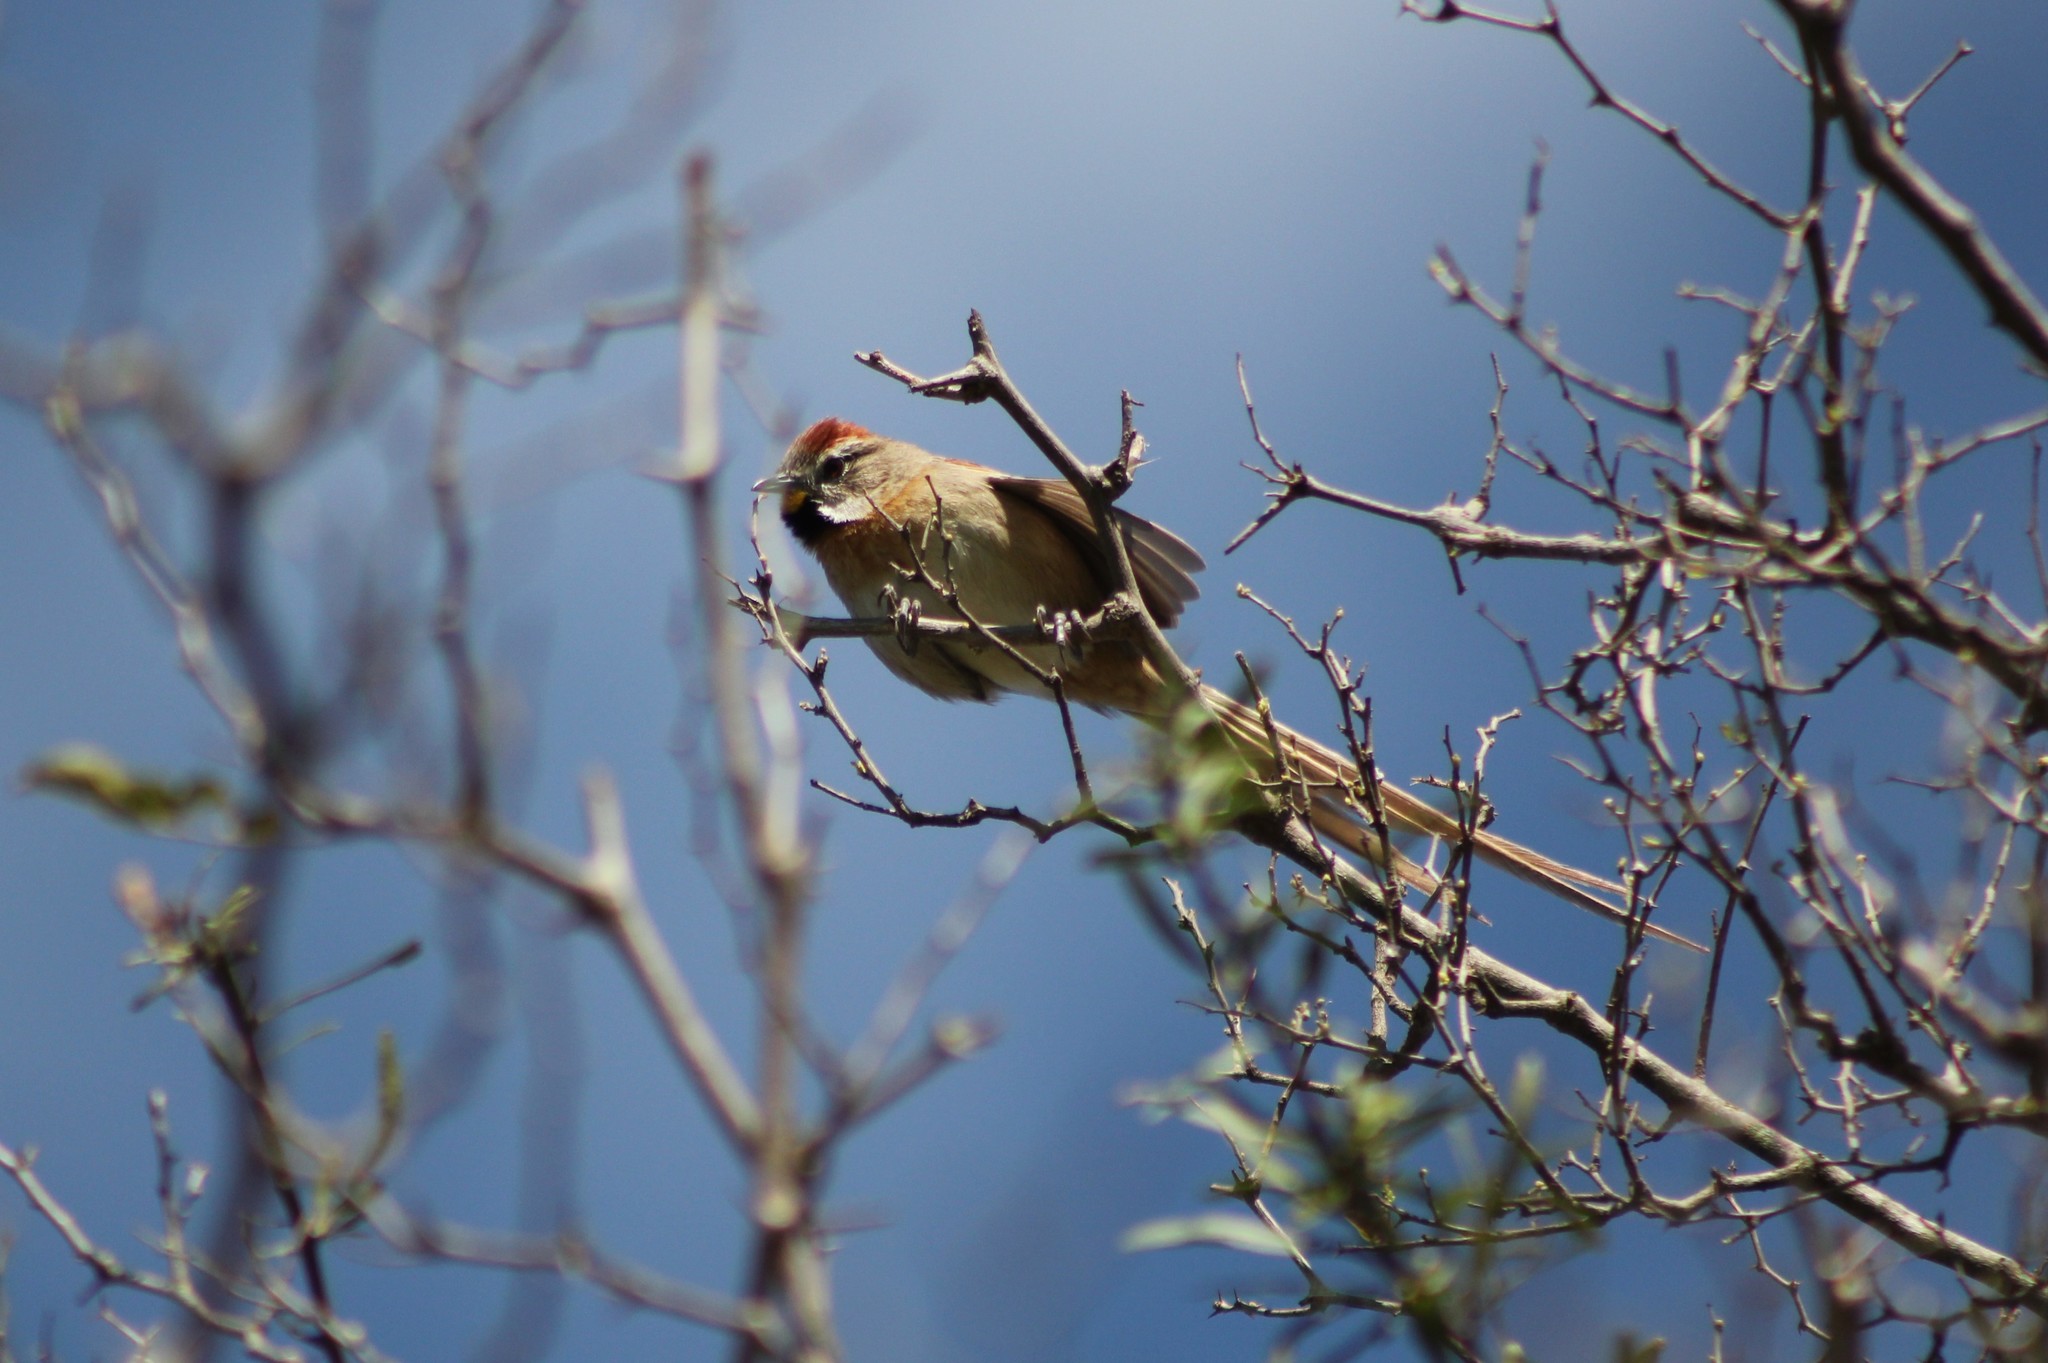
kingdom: Animalia
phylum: Chordata
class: Aves
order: Passeriformes
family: Furnariidae
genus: Schoeniophylax
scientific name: Schoeniophylax phryganophilus
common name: Chotoy spinetail
